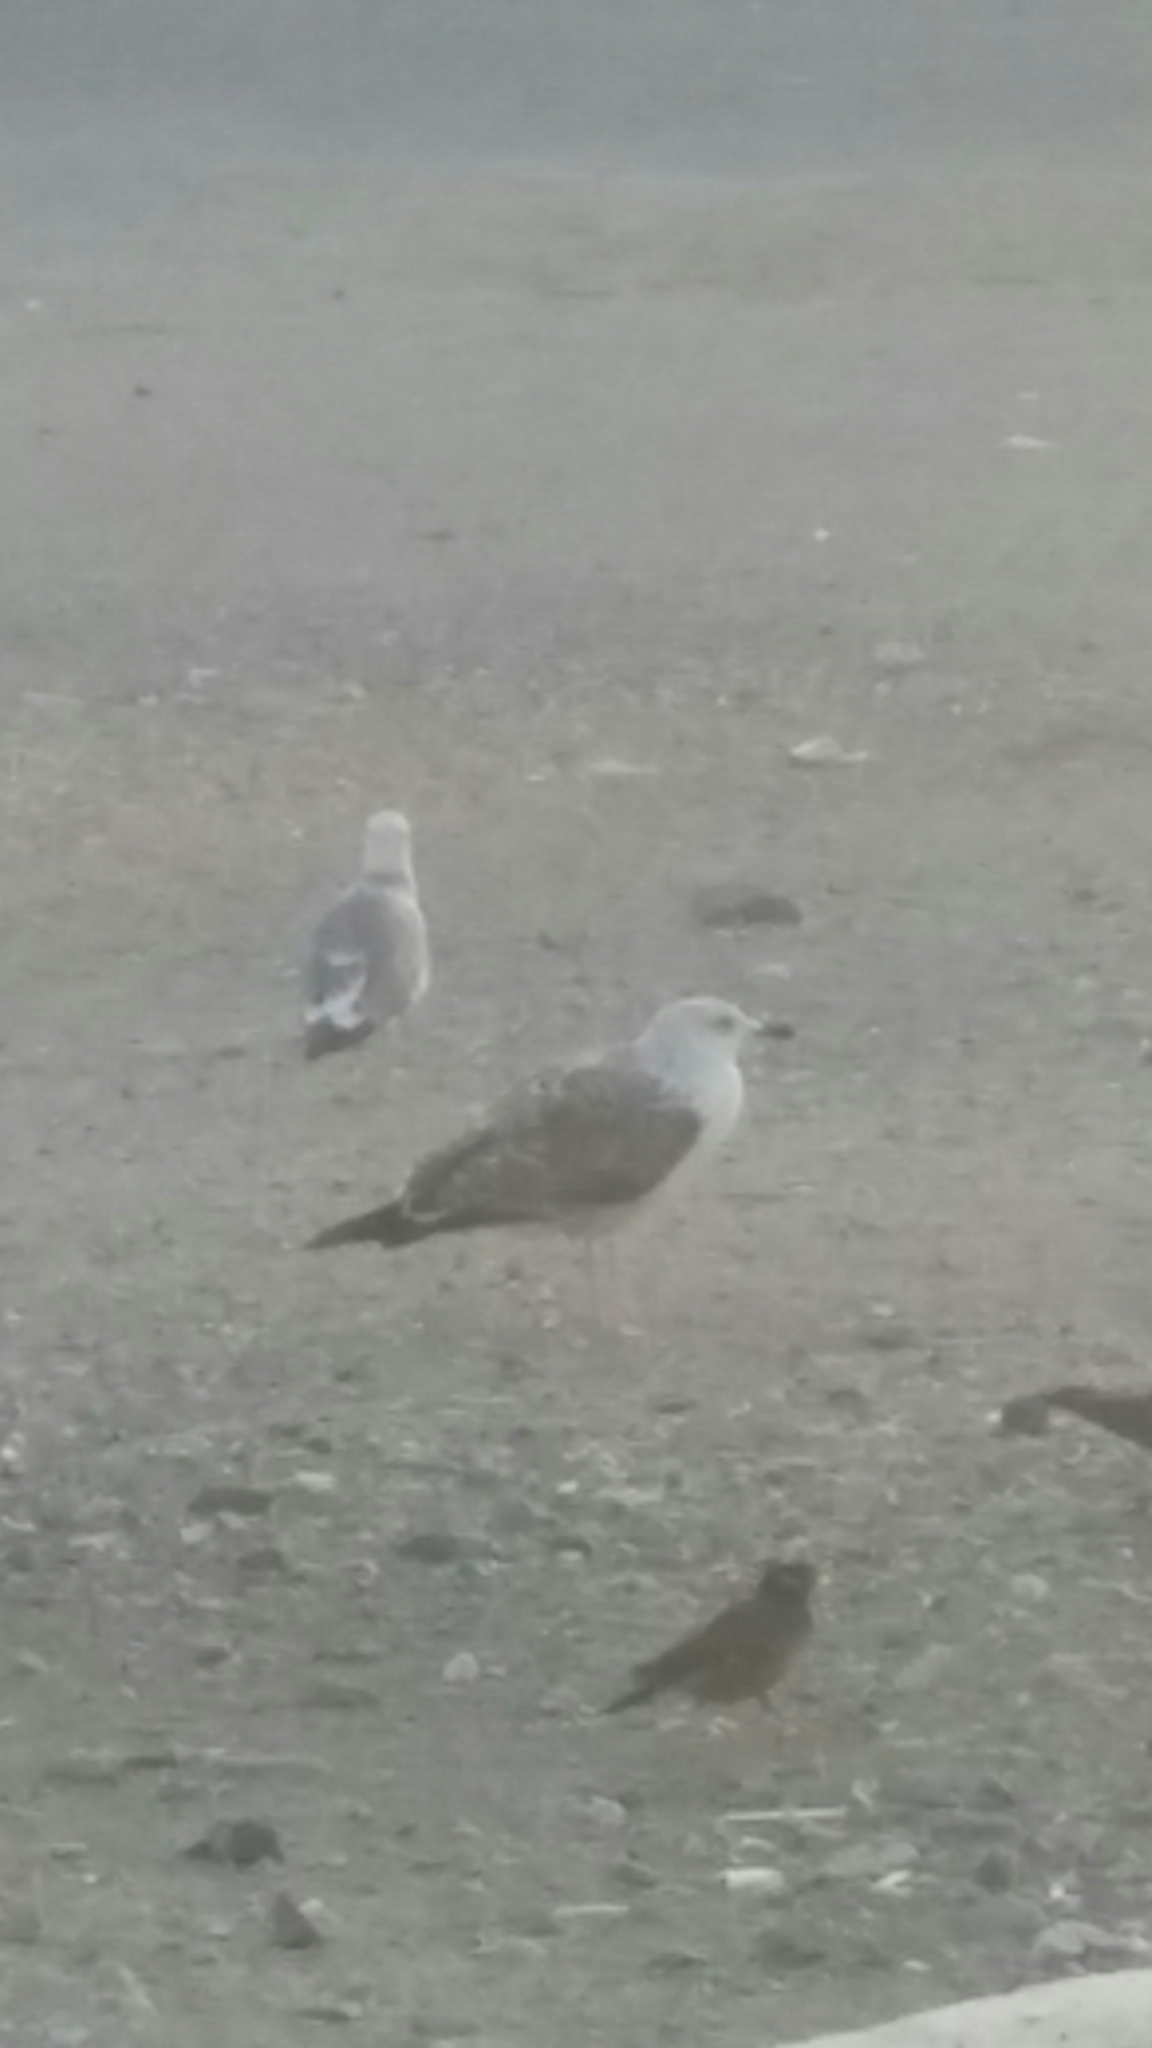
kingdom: Animalia
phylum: Chordata
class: Aves
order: Charadriiformes
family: Laridae
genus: Larus
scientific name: Larus fuscus
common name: Lesser black-backed gull
